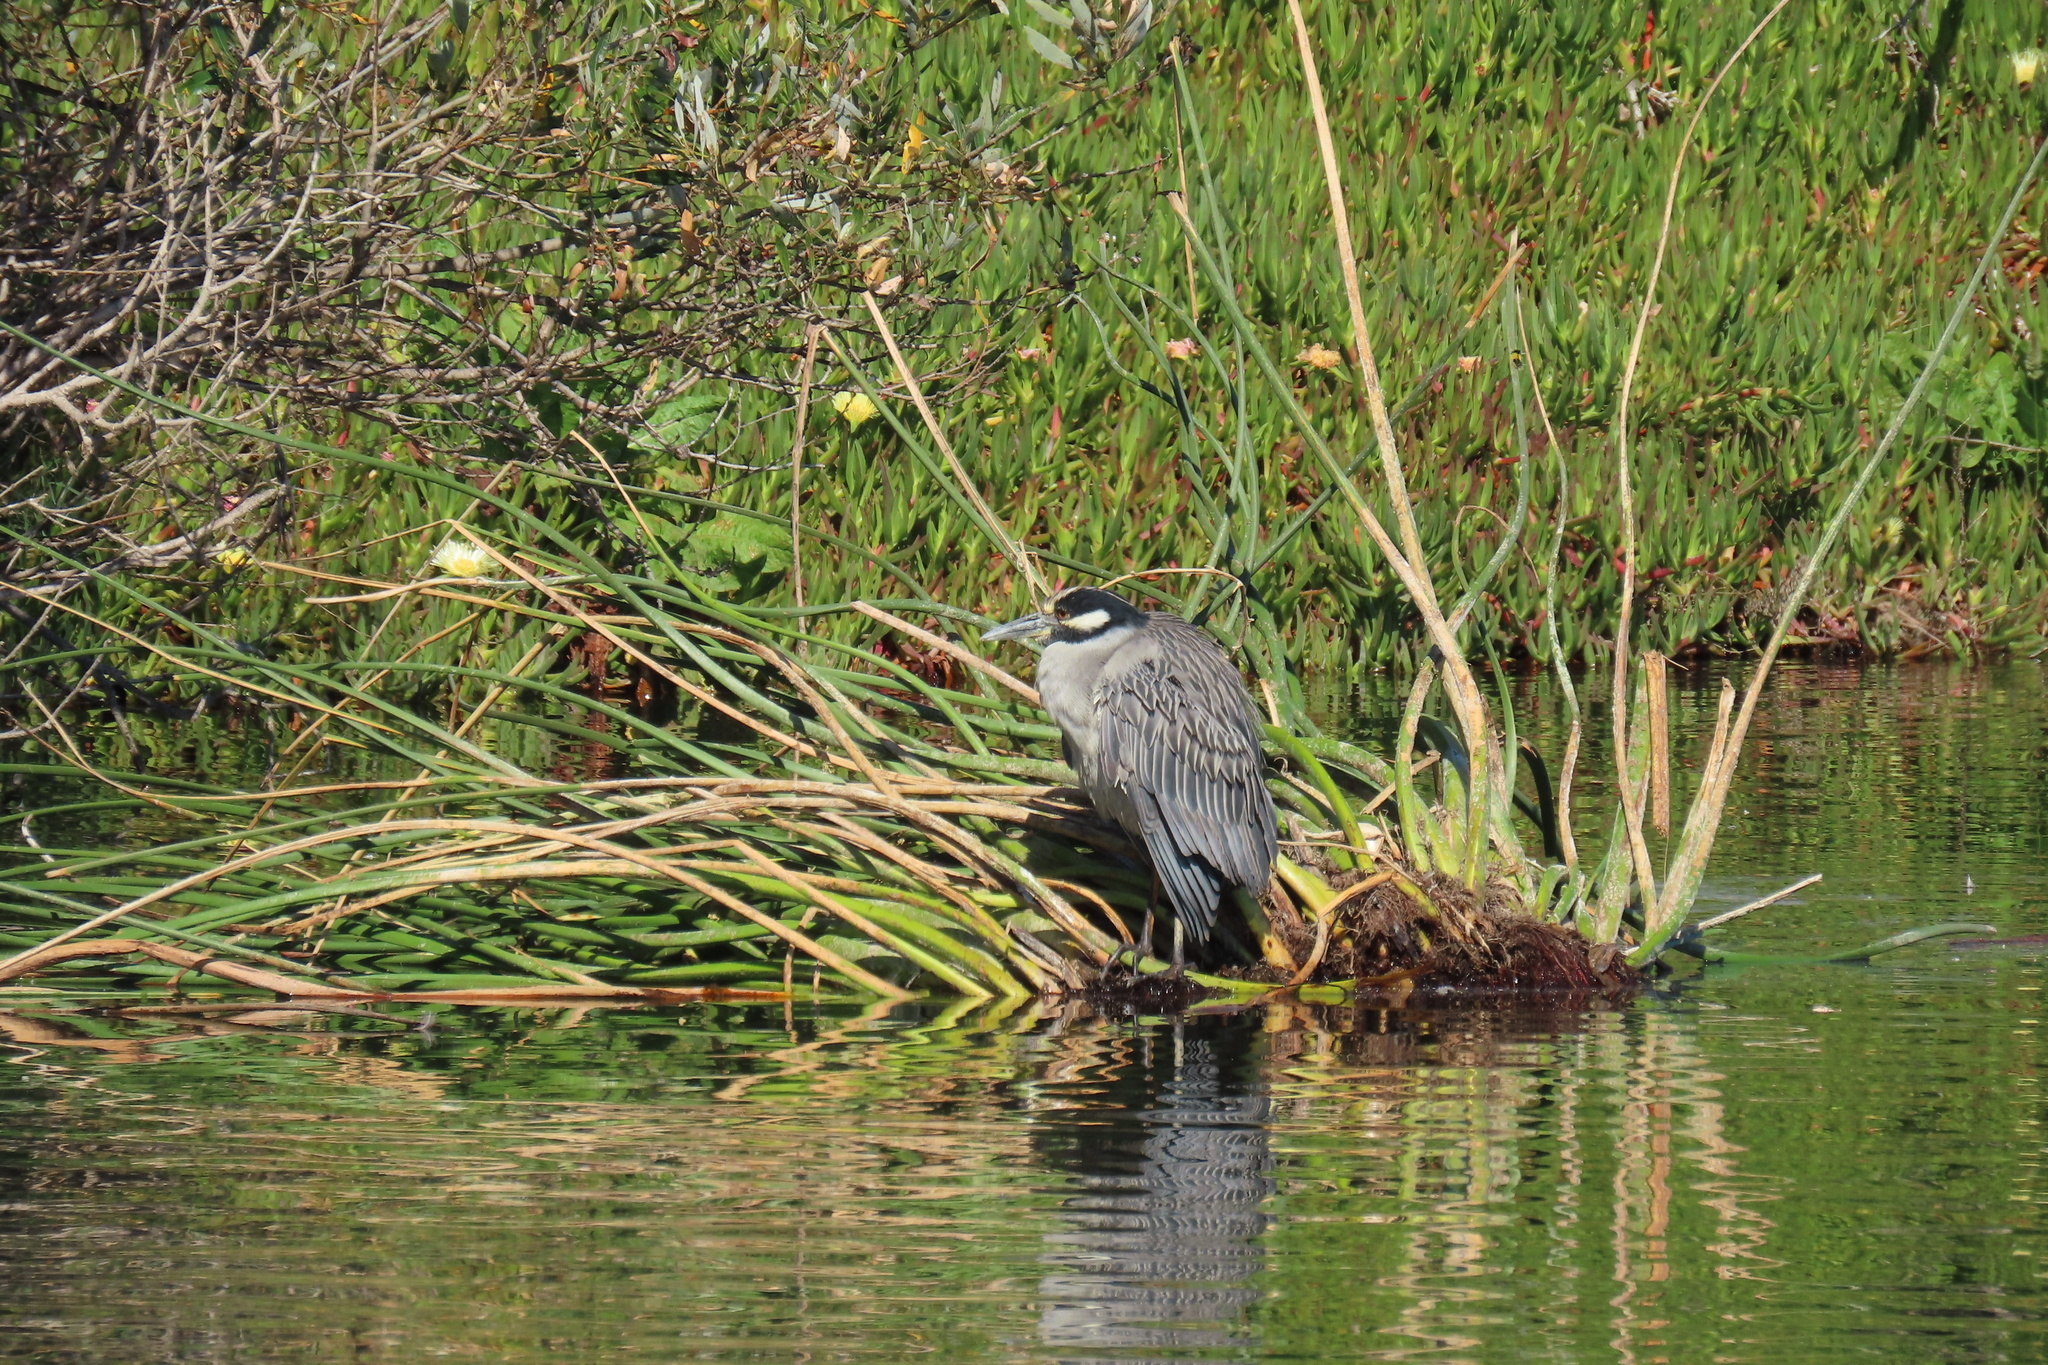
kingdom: Animalia
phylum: Chordata
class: Aves
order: Pelecaniformes
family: Ardeidae
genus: Nyctanassa
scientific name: Nyctanassa violacea
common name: Yellow-crowned night heron
